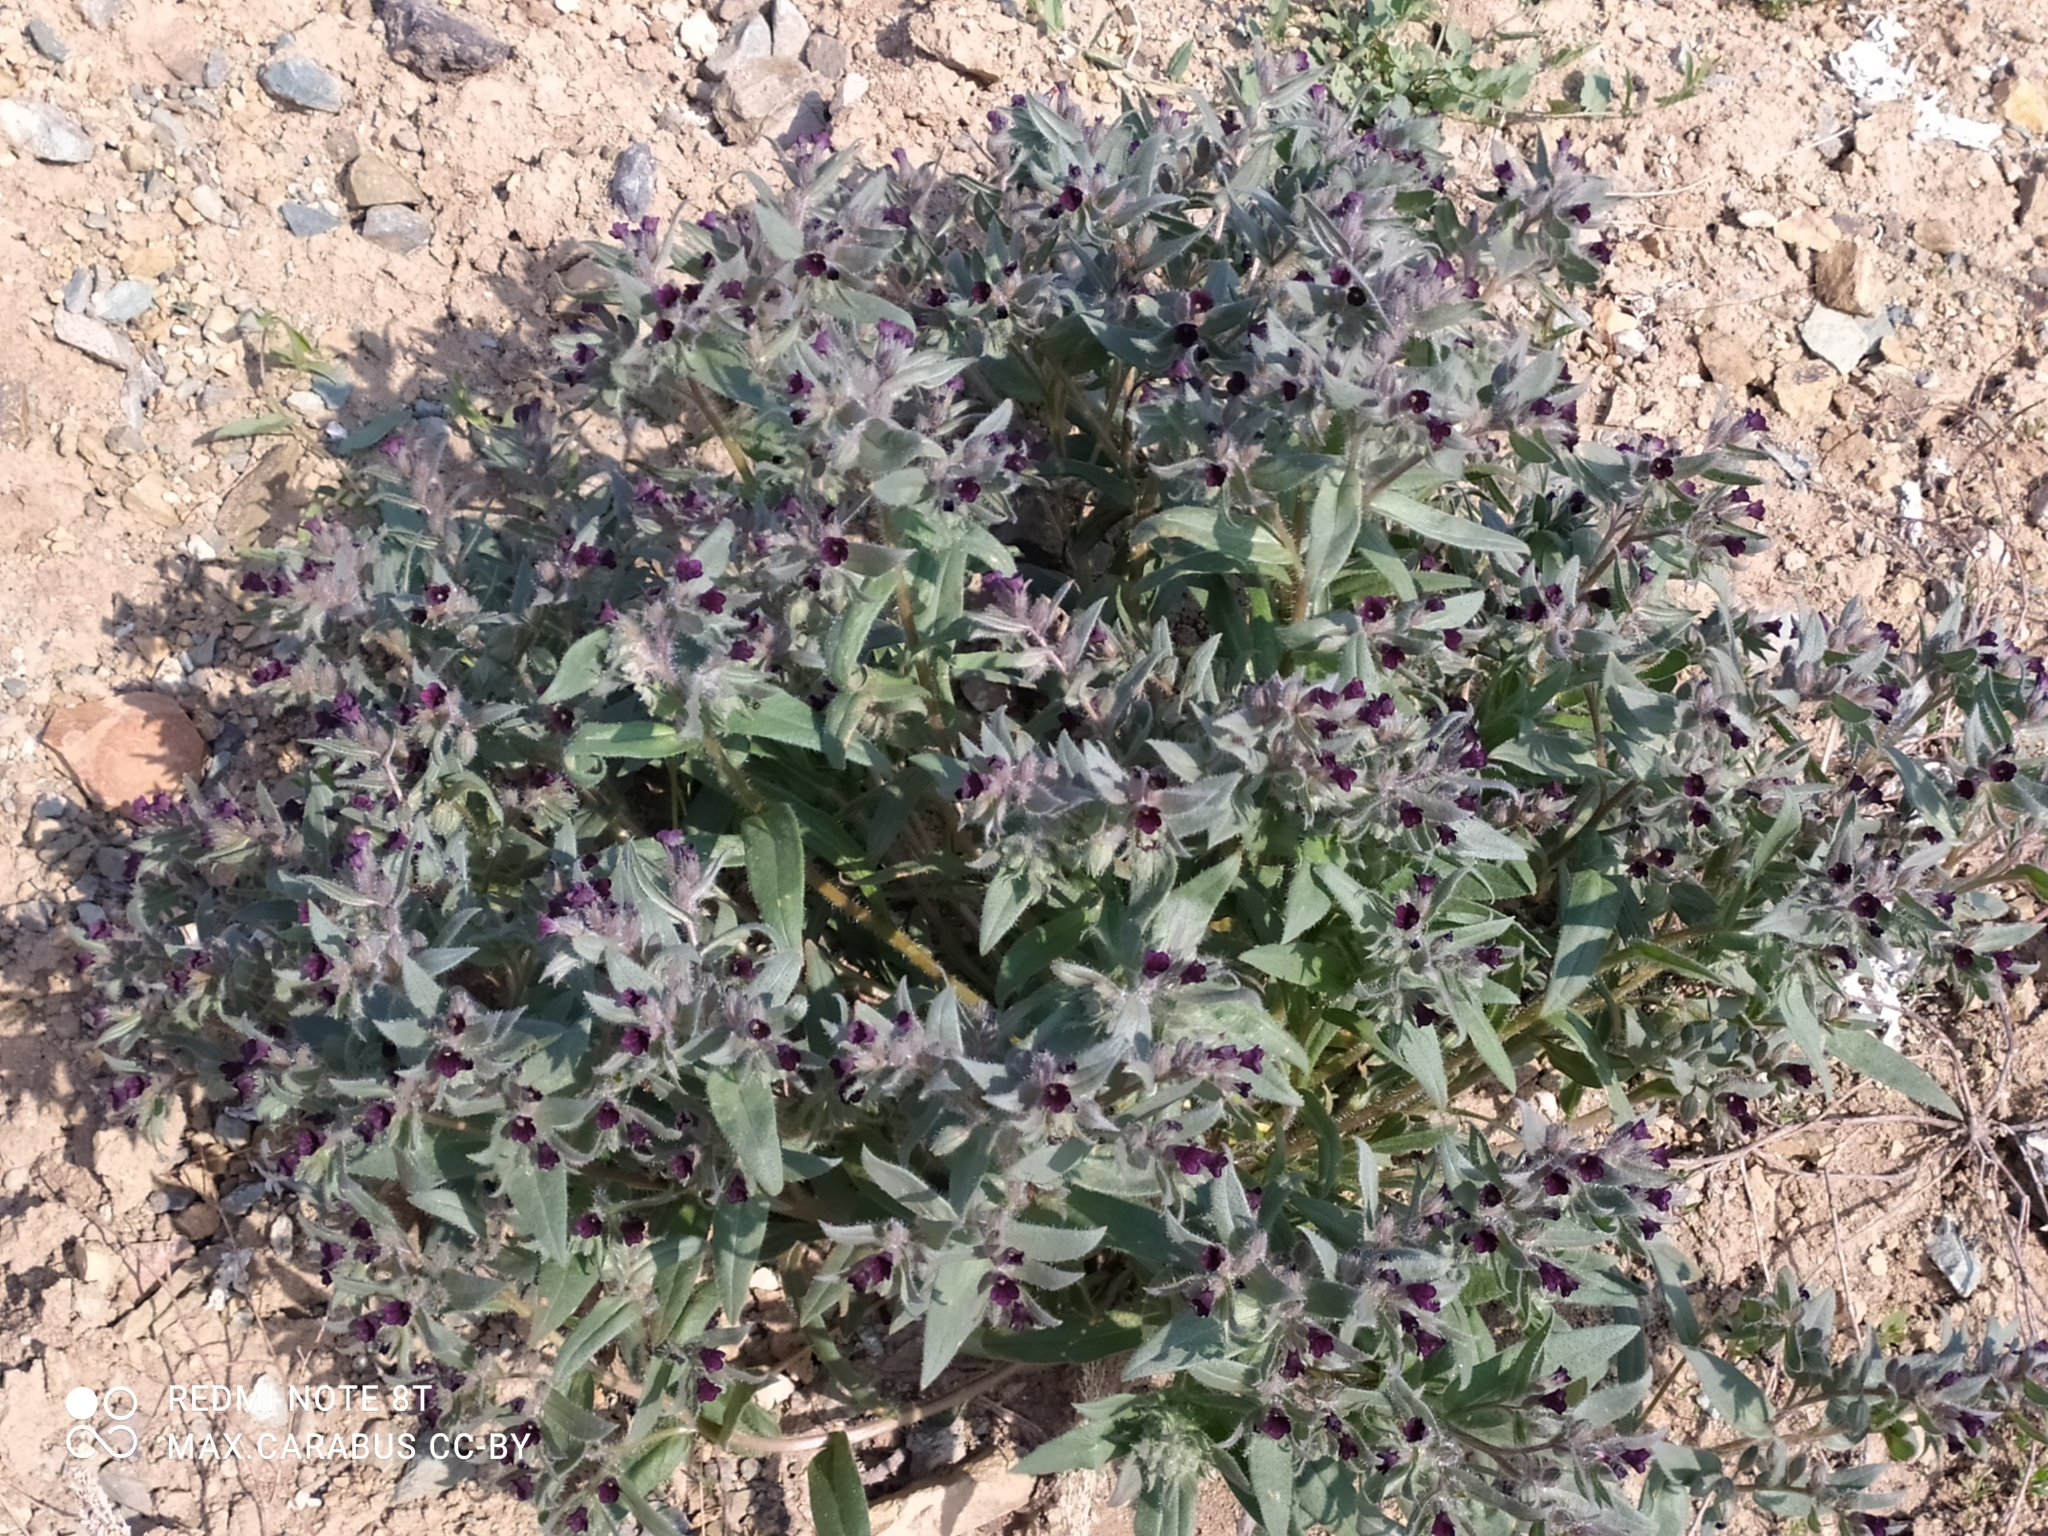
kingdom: Plantae
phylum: Tracheophyta
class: Magnoliopsida
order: Boraginales
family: Boraginaceae
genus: Nonea
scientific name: Nonea pulla
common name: Brown nonea
